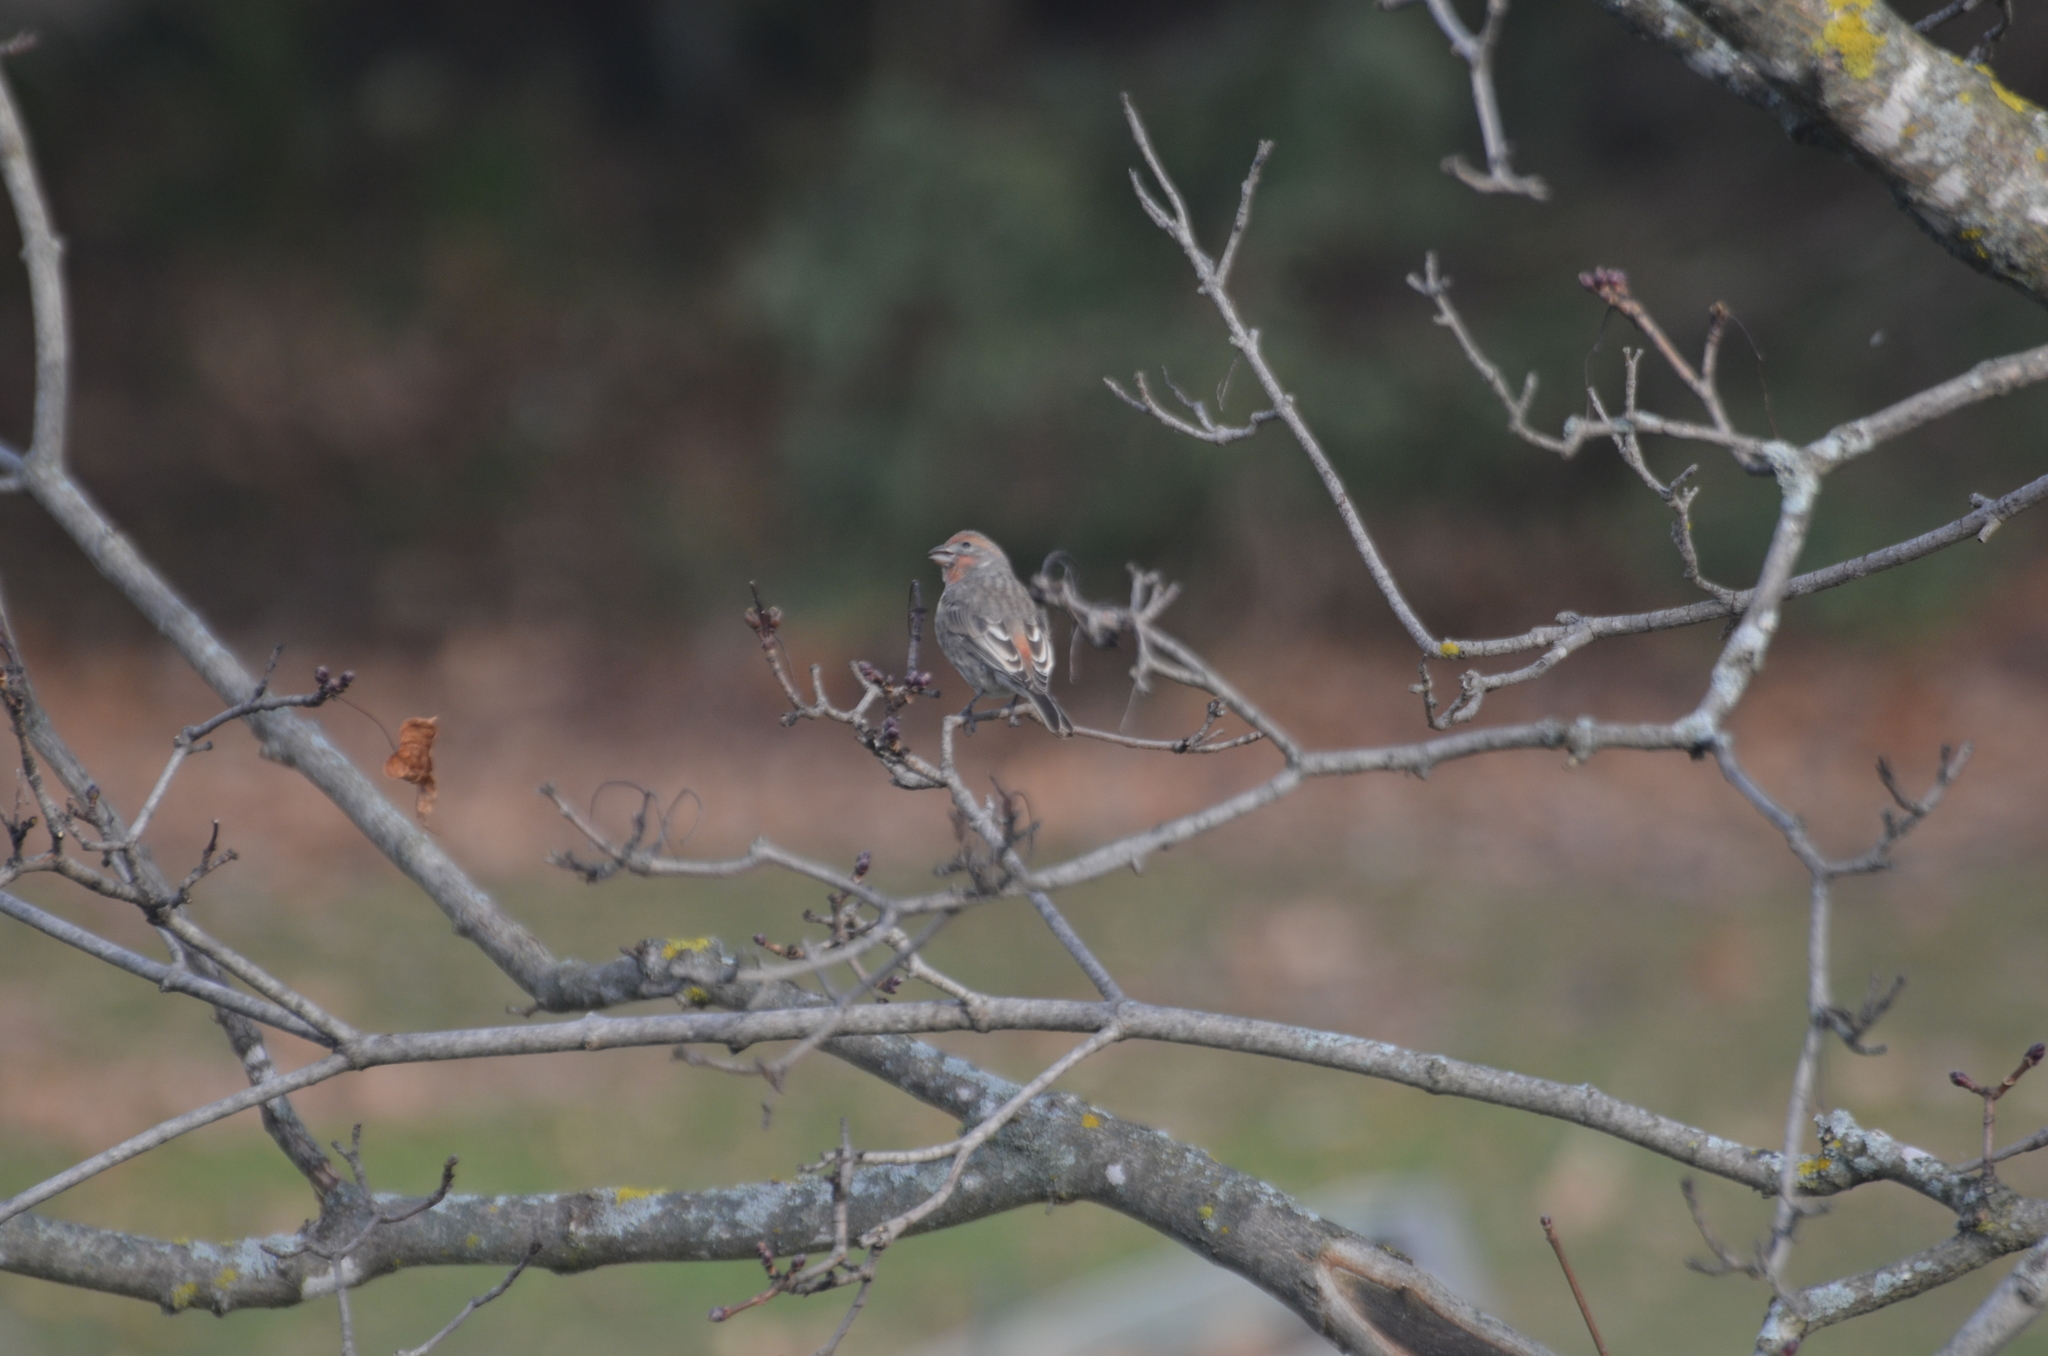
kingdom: Animalia
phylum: Chordata
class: Aves
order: Passeriformes
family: Fringillidae
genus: Haemorhous
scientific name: Haemorhous mexicanus
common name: House finch
